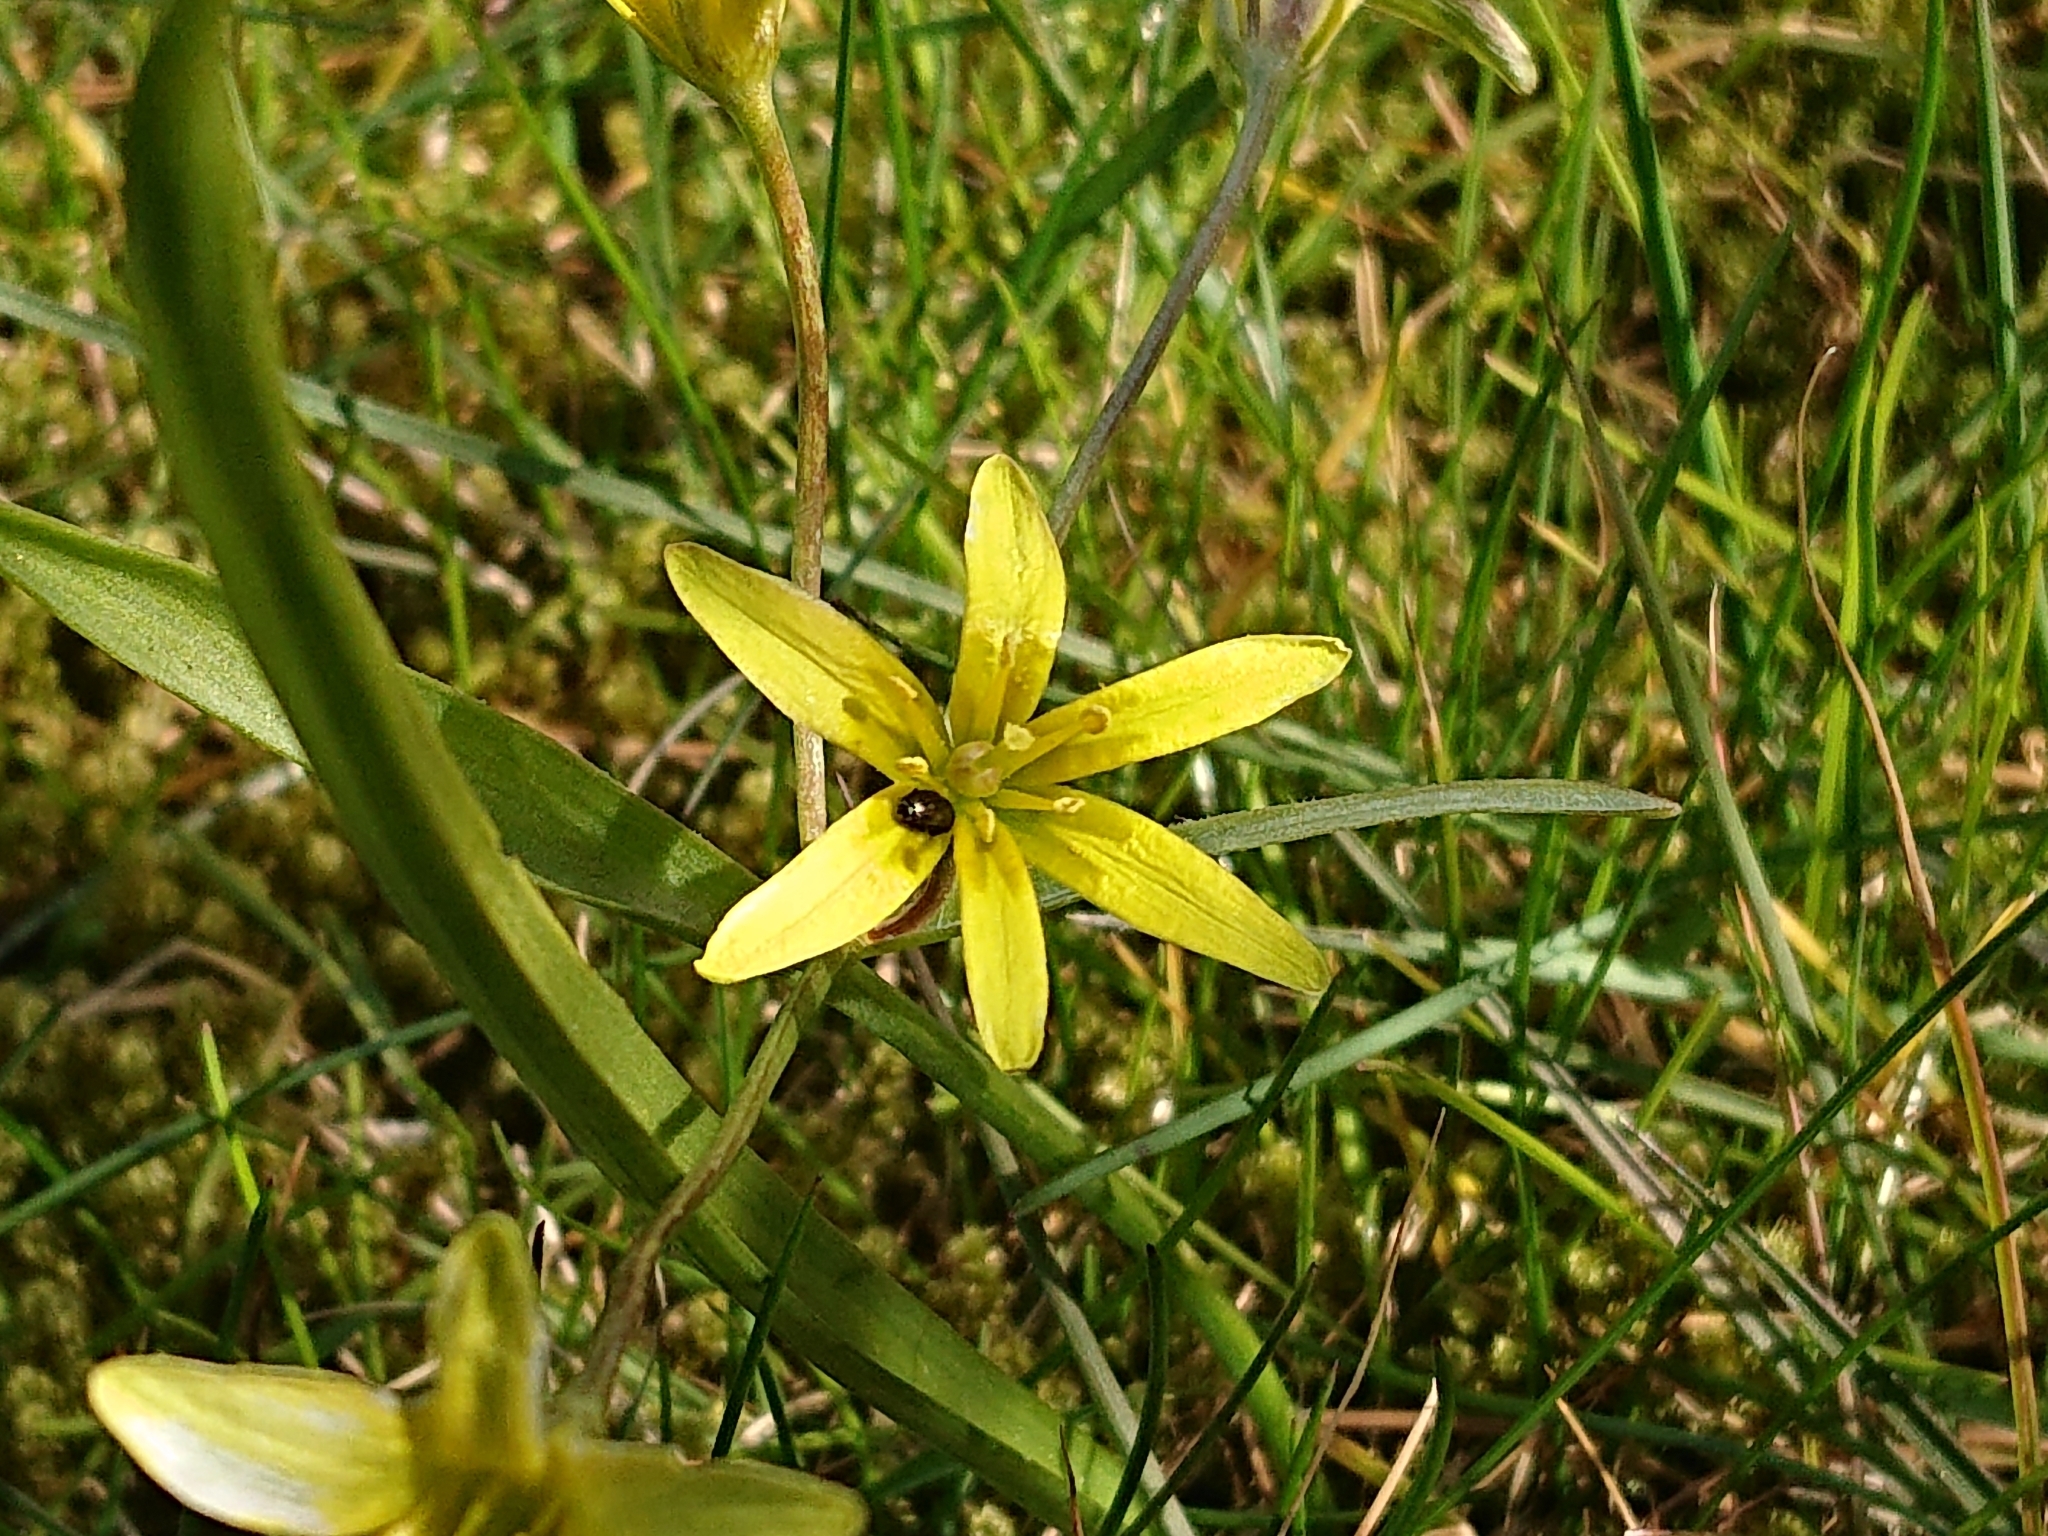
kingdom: Plantae
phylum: Tracheophyta
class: Liliopsida
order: Liliales
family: Liliaceae
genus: Gagea
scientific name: Gagea lutea
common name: Yellow star-of-bethlehem
